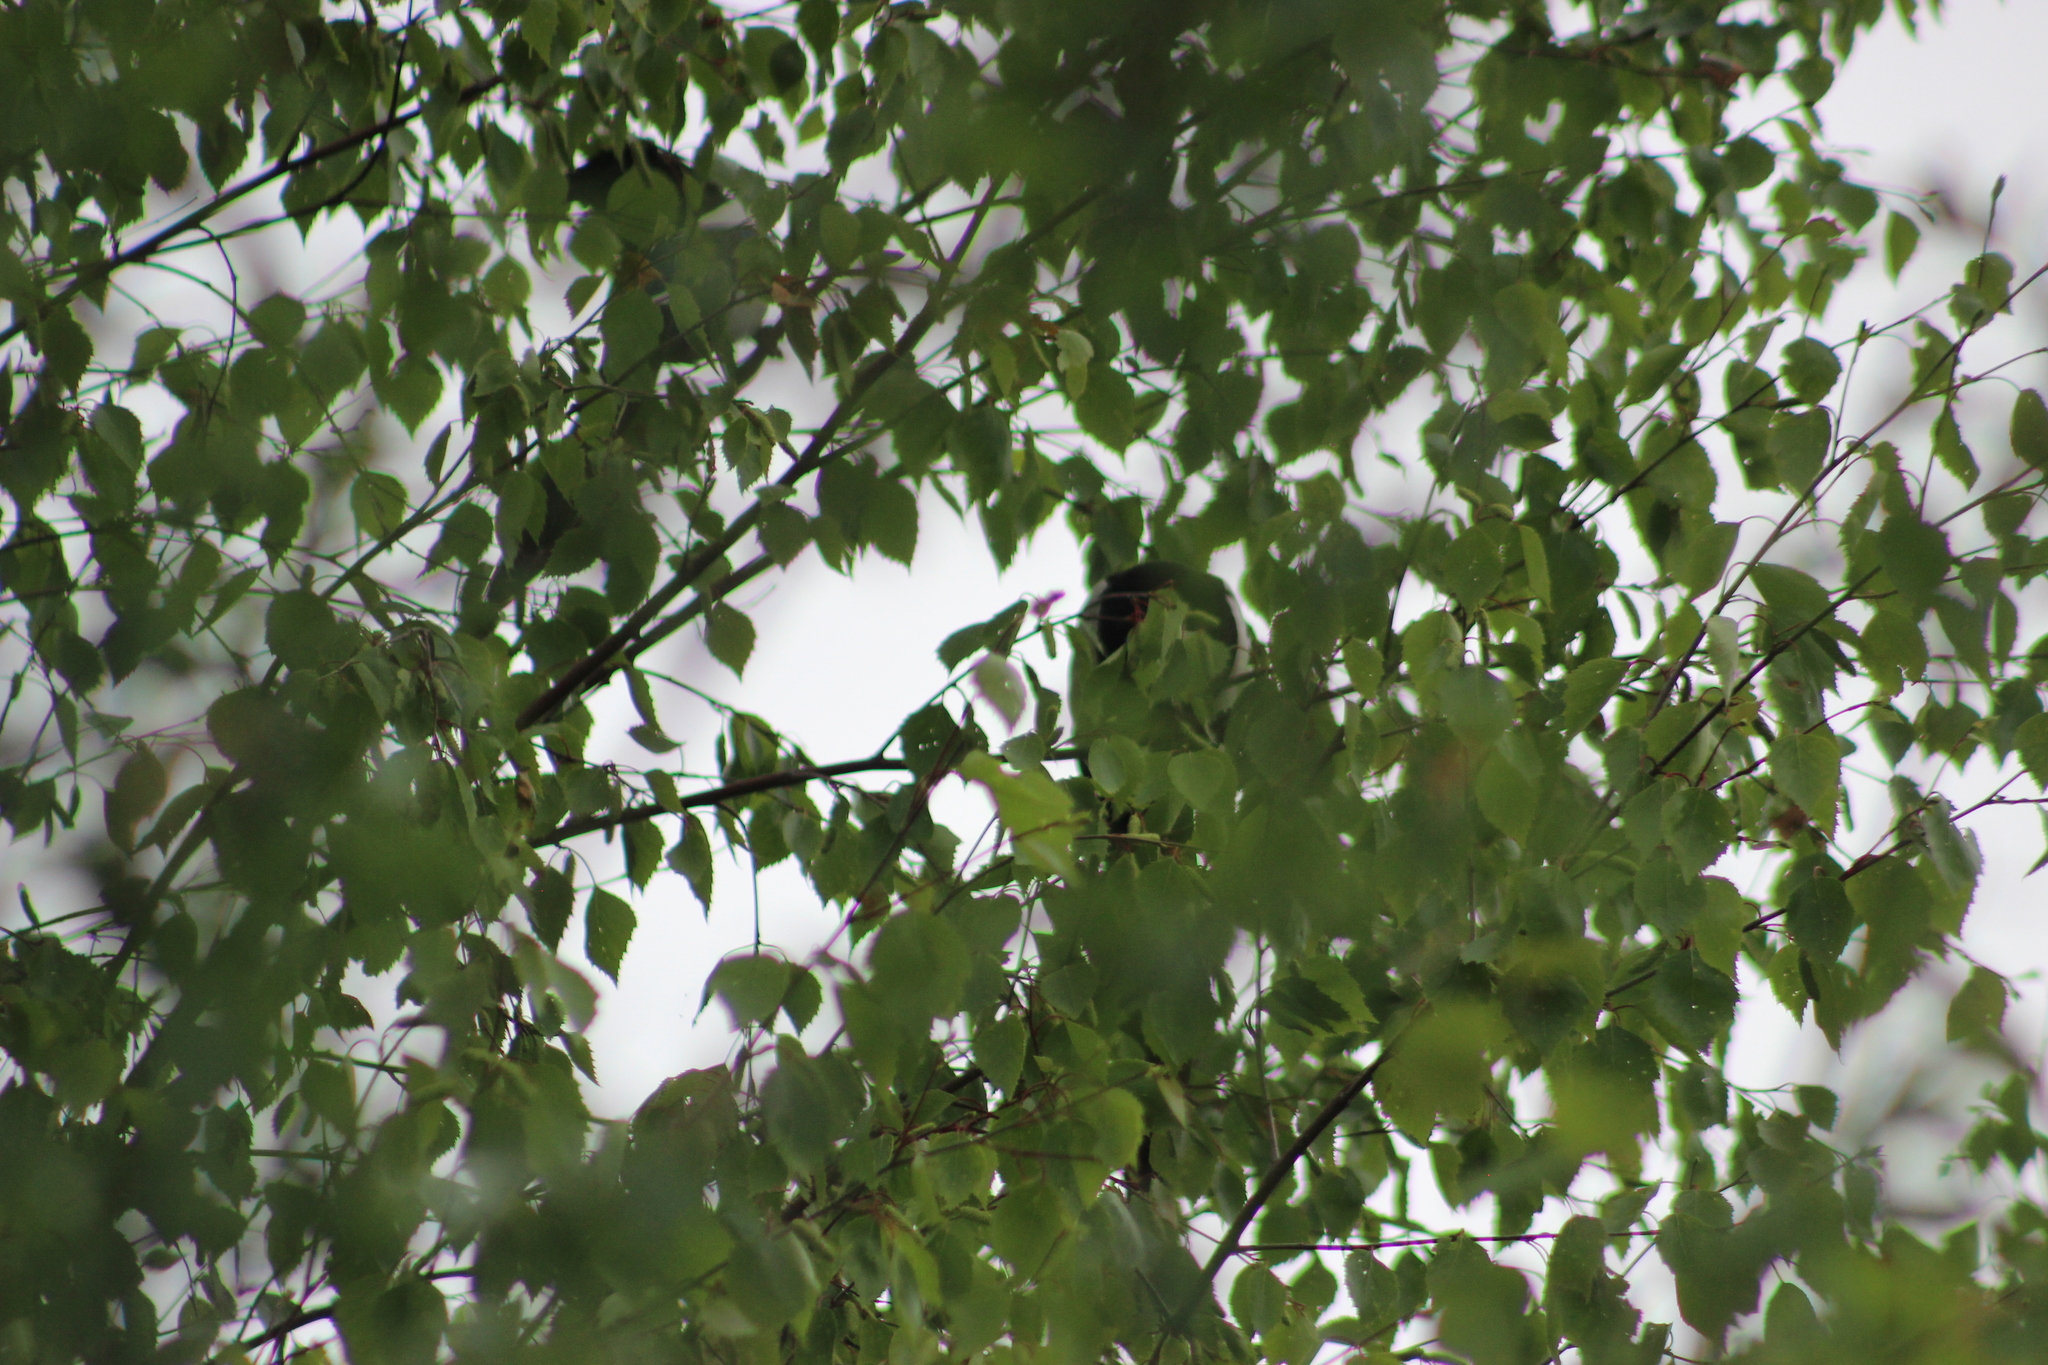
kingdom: Animalia
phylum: Chordata
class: Aves
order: Passeriformes
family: Corvidae
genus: Pica
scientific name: Pica pica
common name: Eurasian magpie
